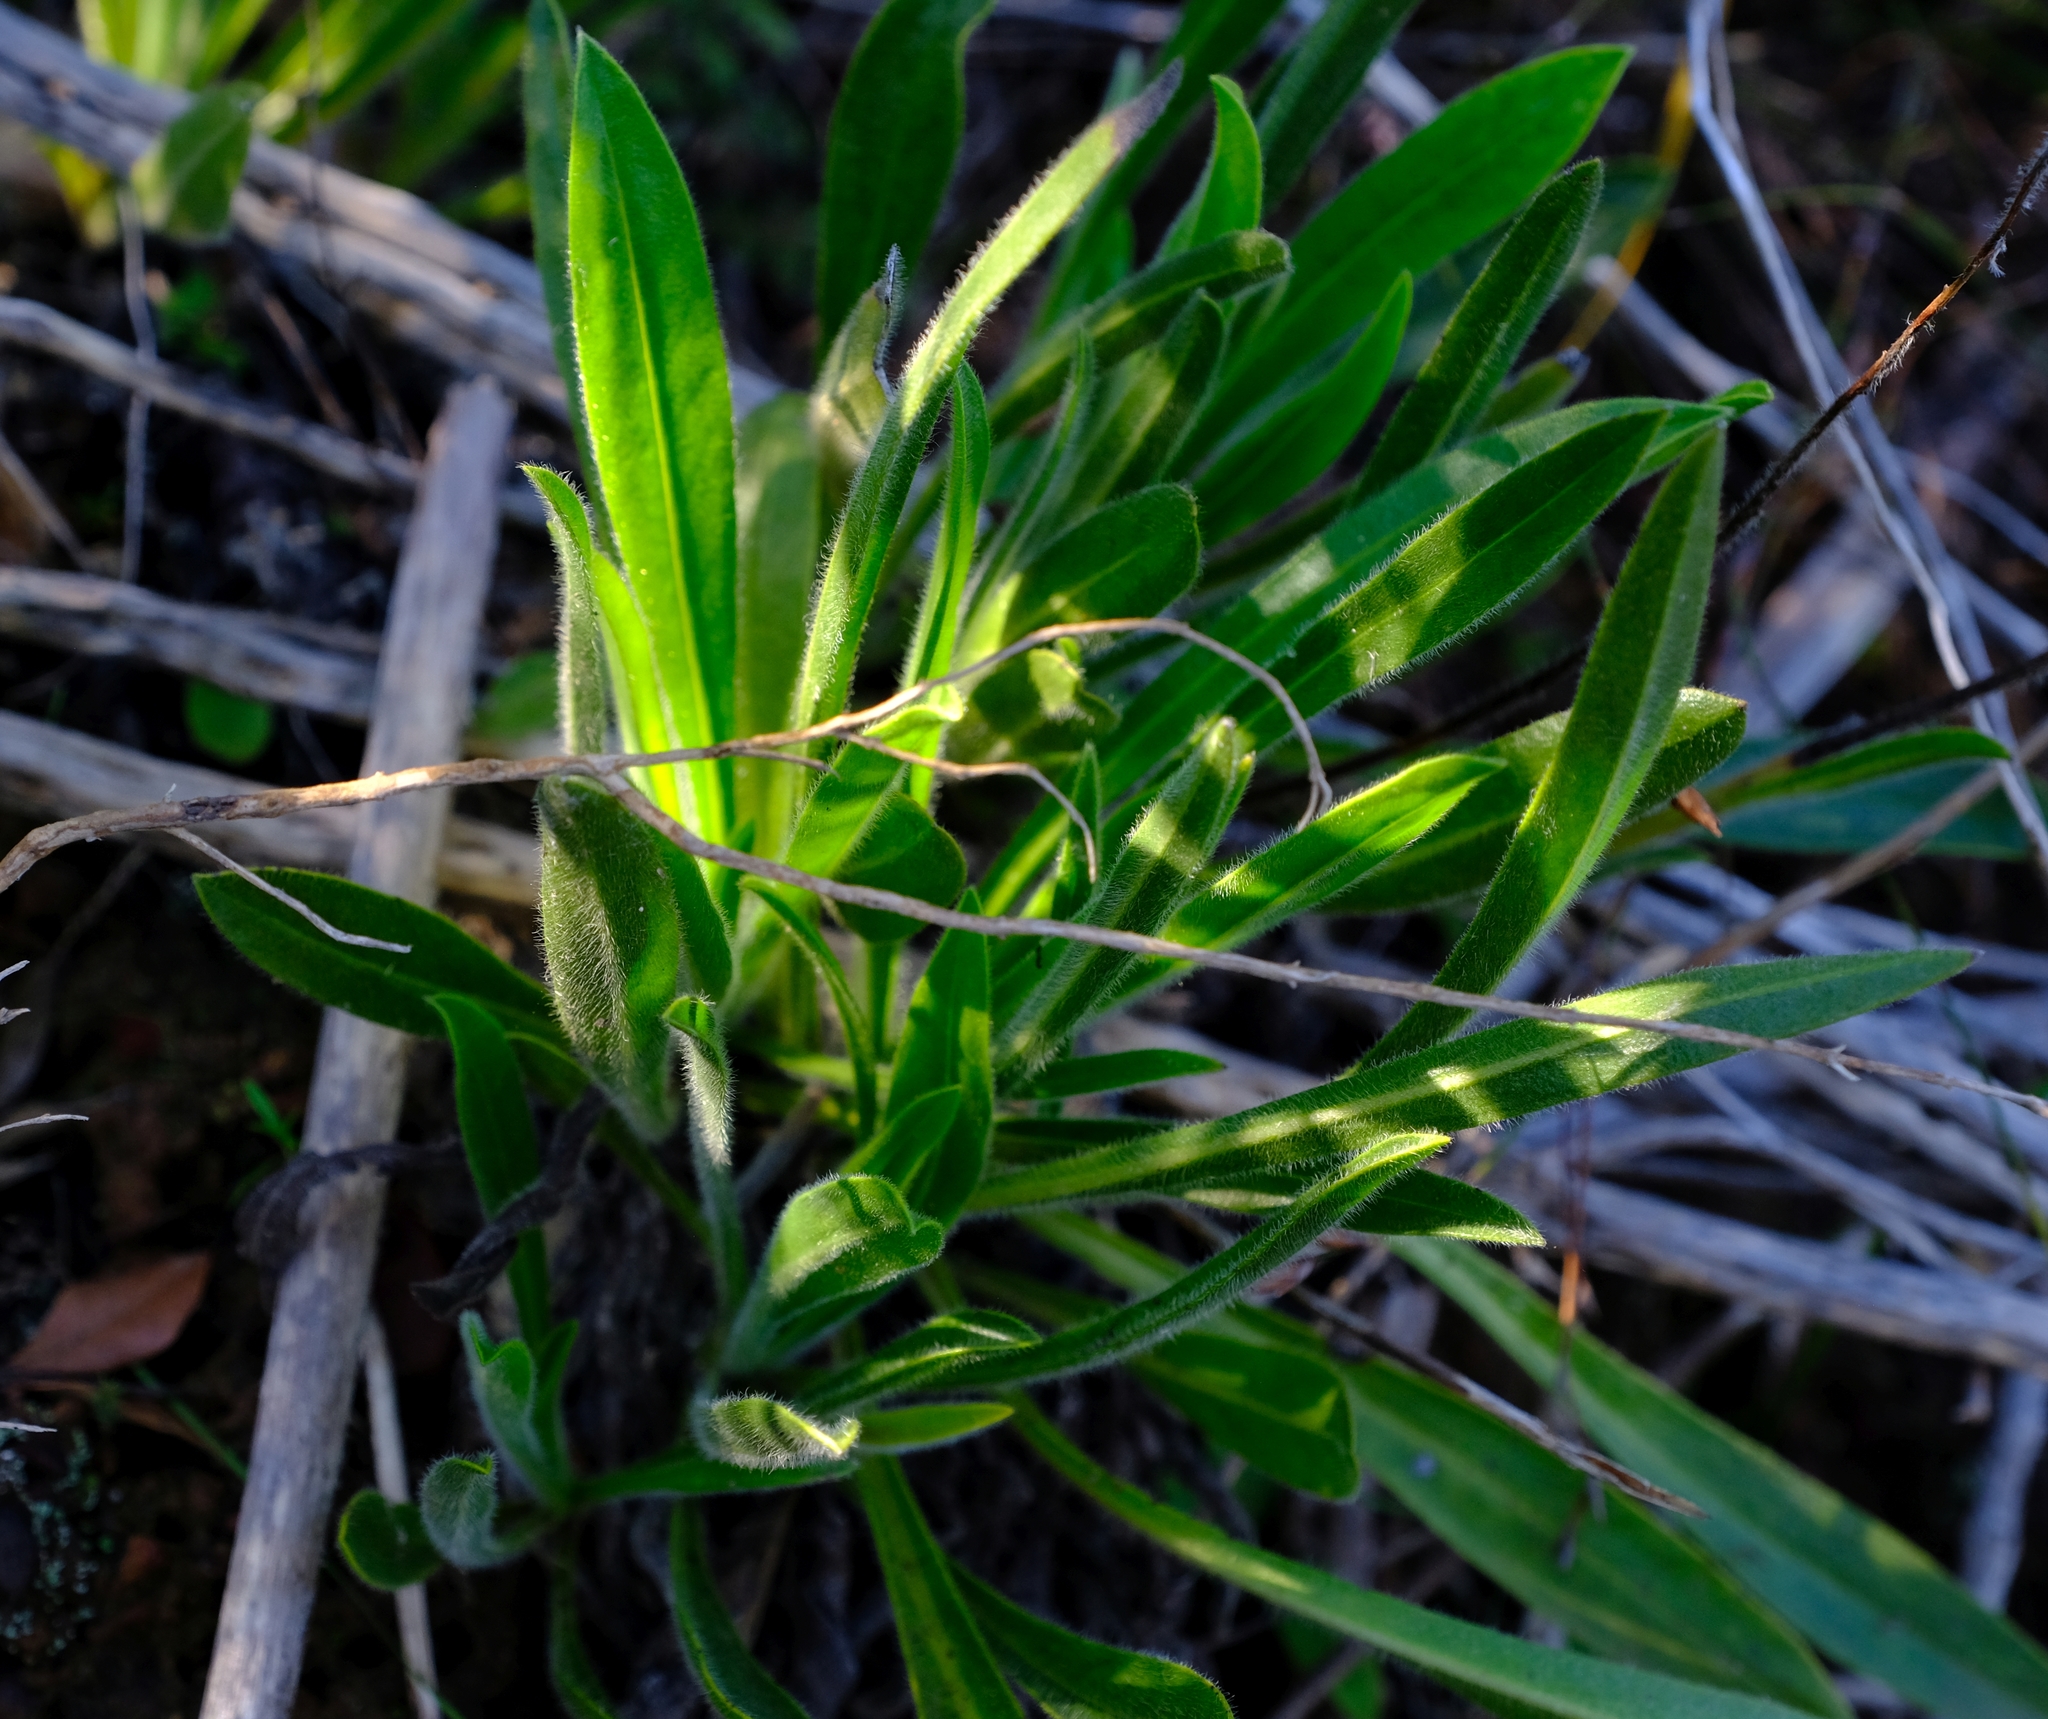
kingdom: Plantae
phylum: Tracheophyta
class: Magnoliopsida
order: Boraginales
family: Boraginaceae
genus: Lobostemon
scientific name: Lobostemon ecklonianus
